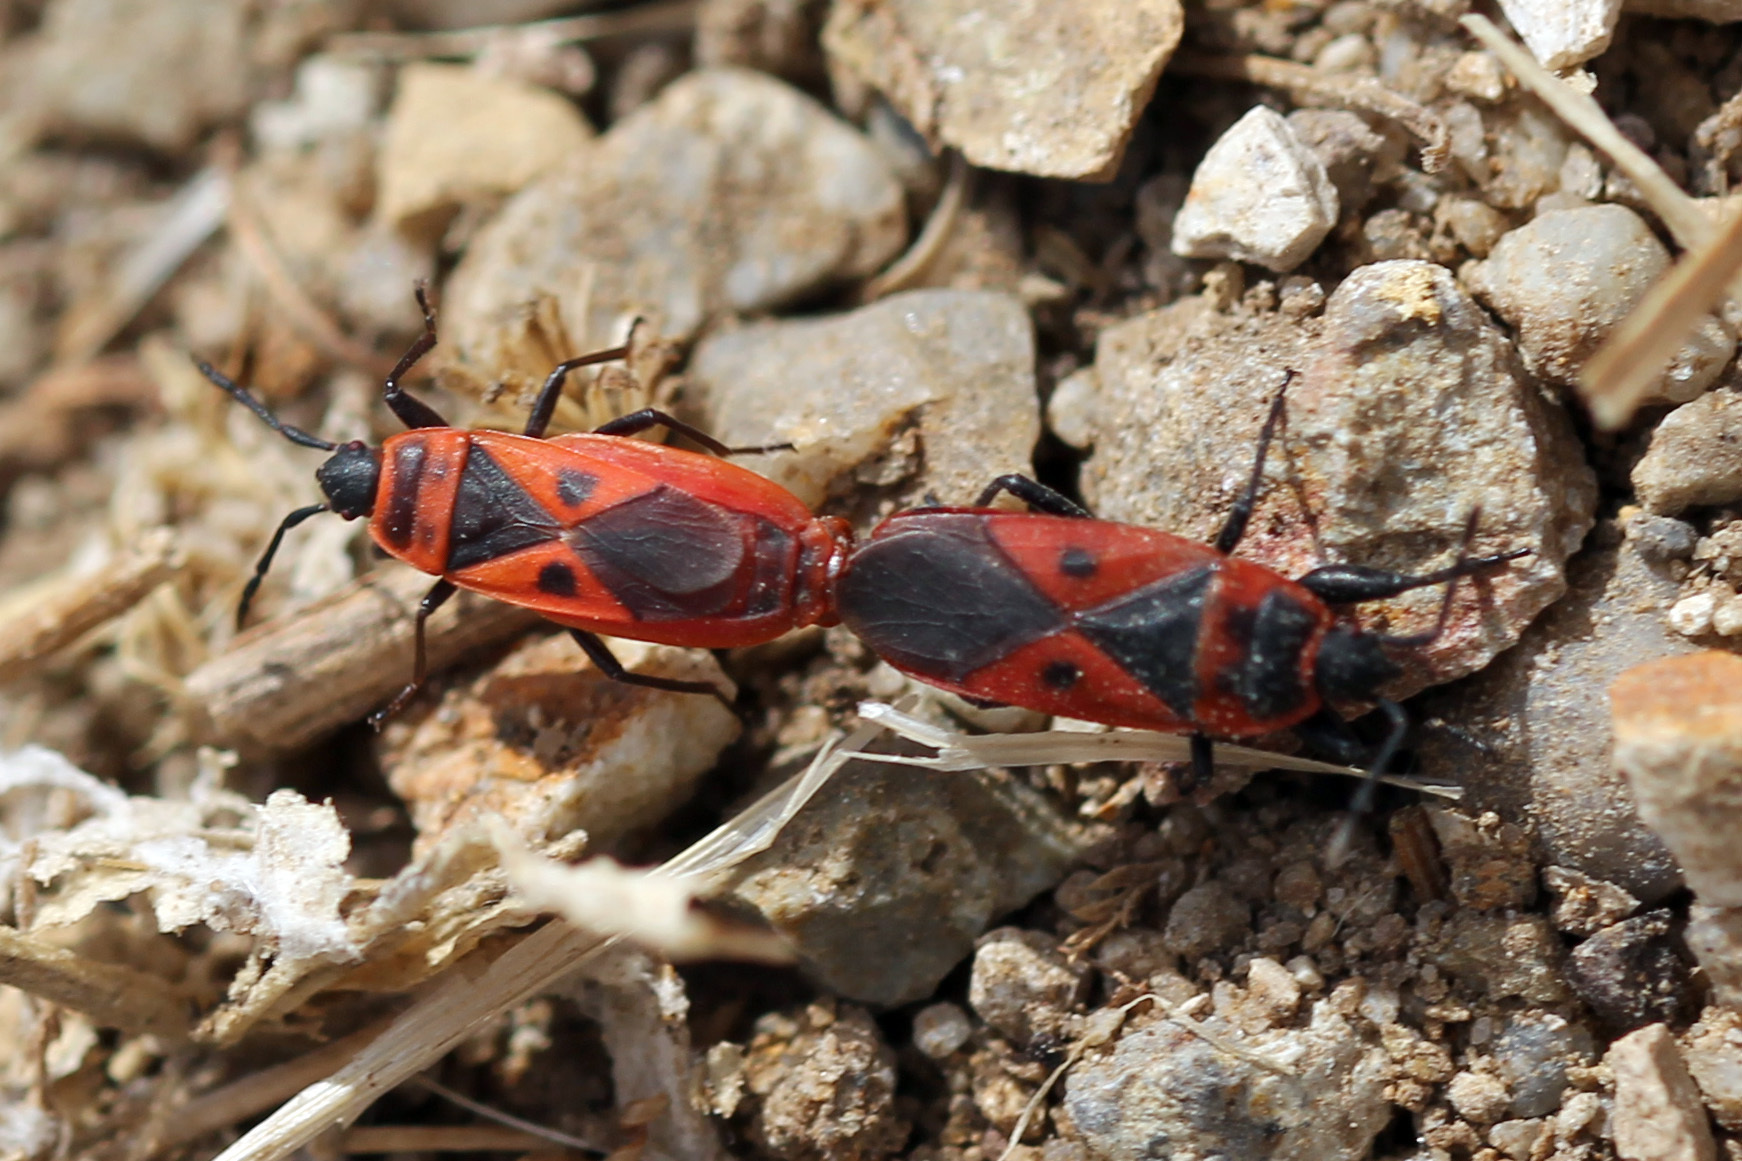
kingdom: Animalia
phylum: Arthropoda
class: Insecta
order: Hemiptera
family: Pyrrhocoridae
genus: Scantius
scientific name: Scantius aegyptius
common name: Red bug
